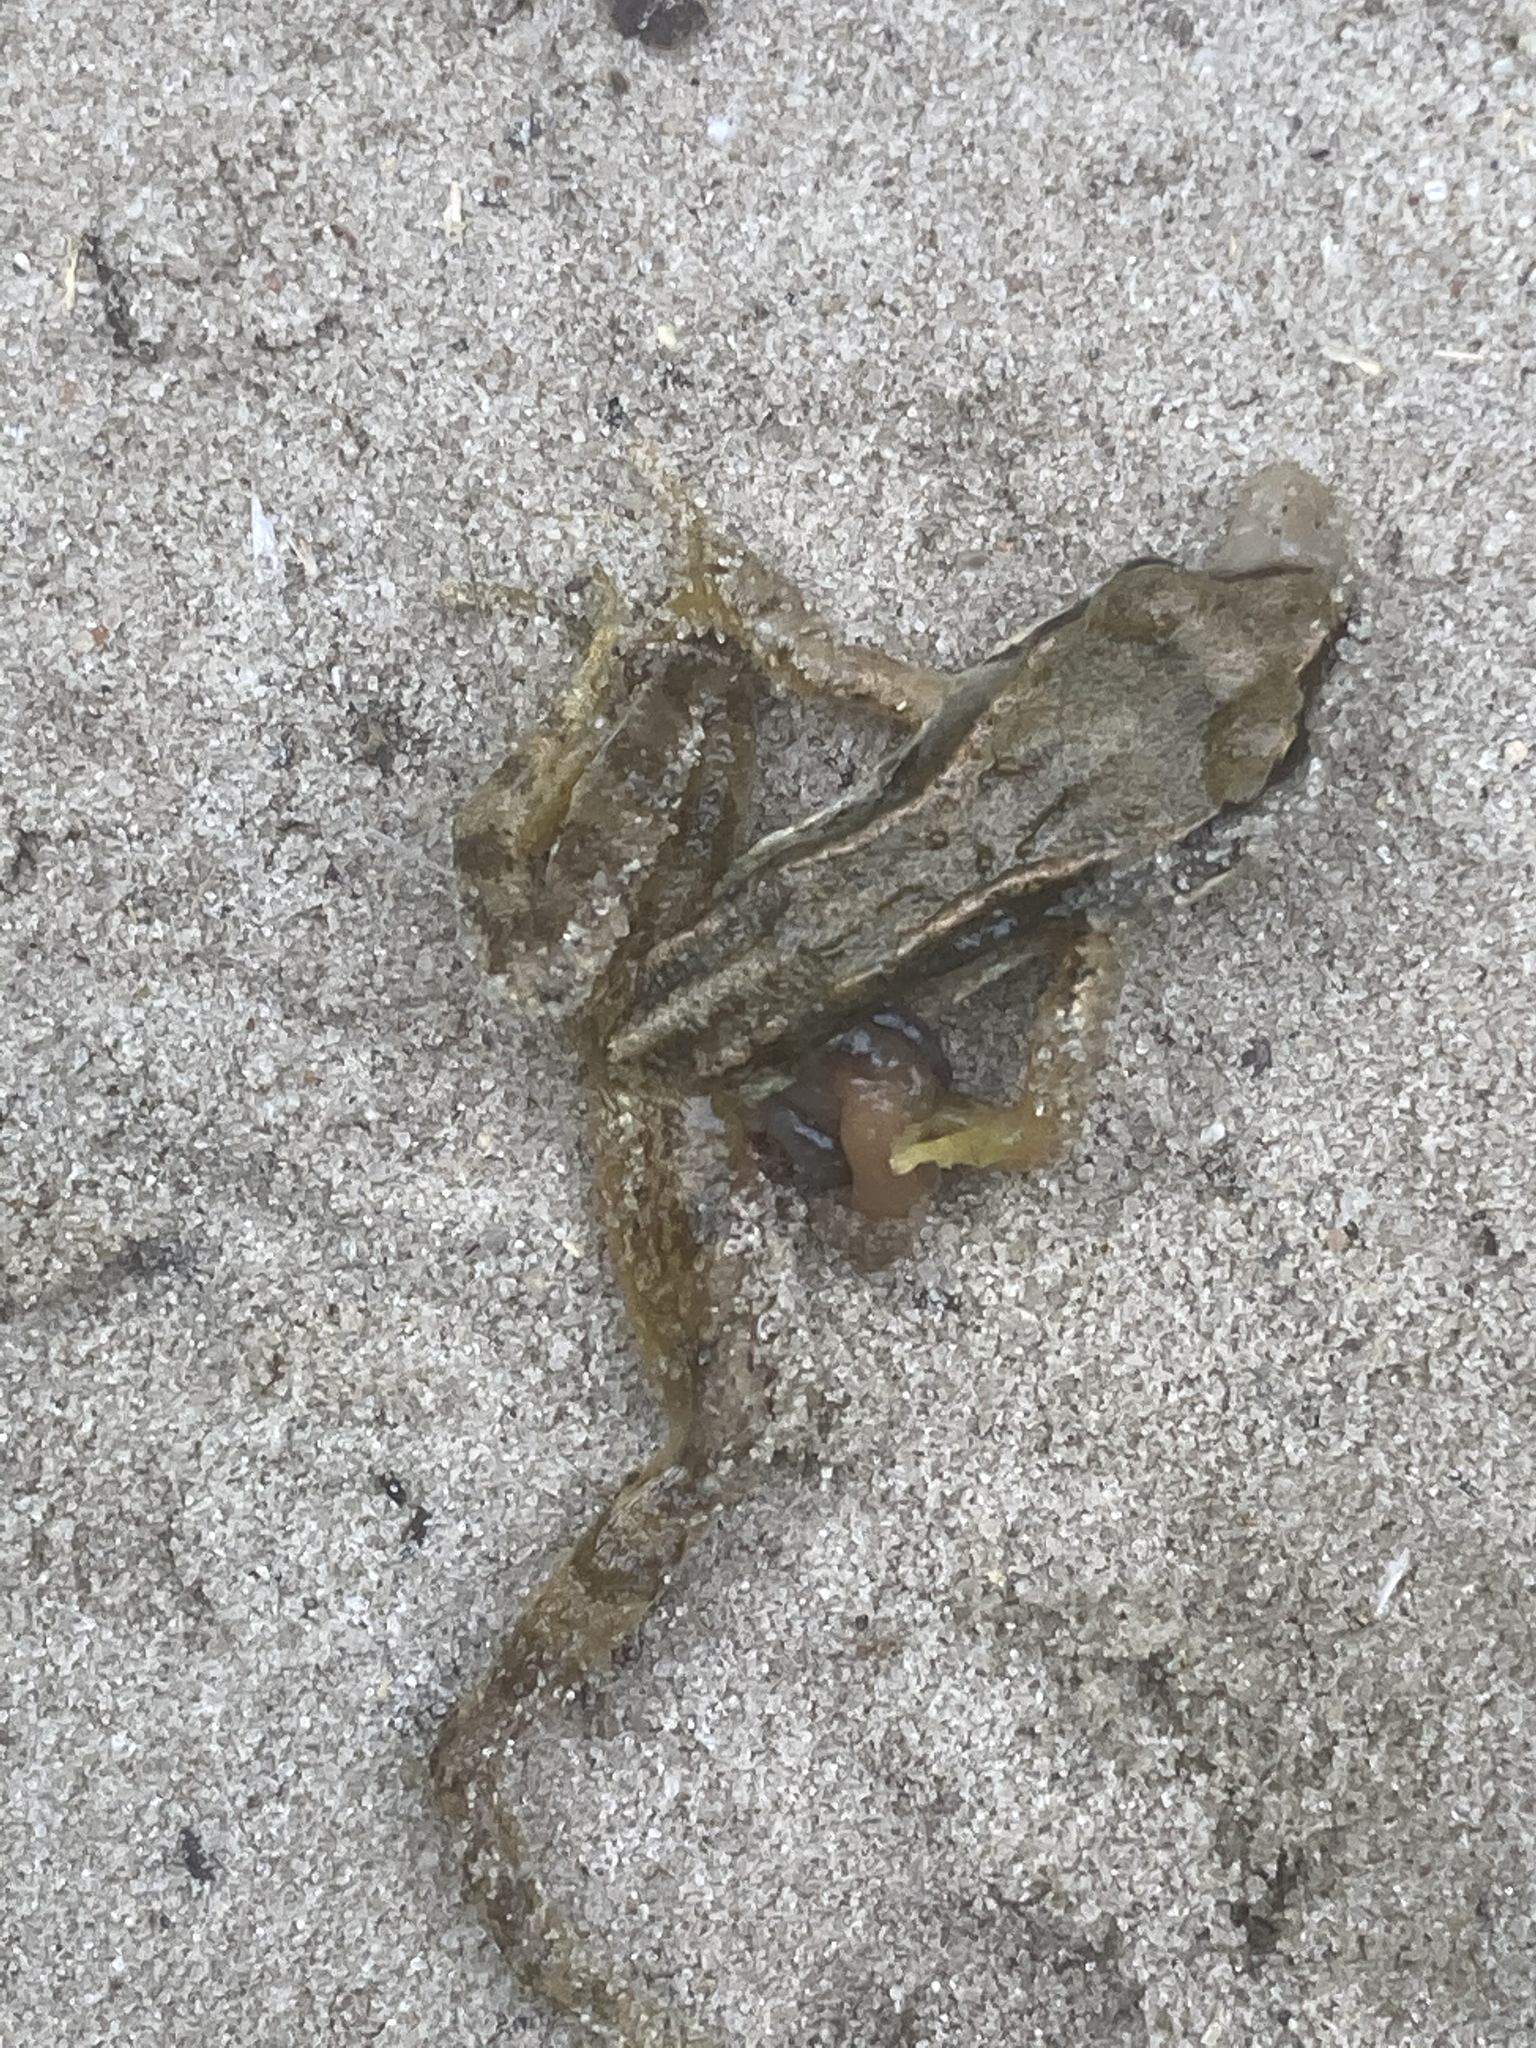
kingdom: Animalia
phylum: Chordata
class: Amphibia
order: Anura
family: Ranidae
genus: Rana
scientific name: Rana temporaria
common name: Common frog
